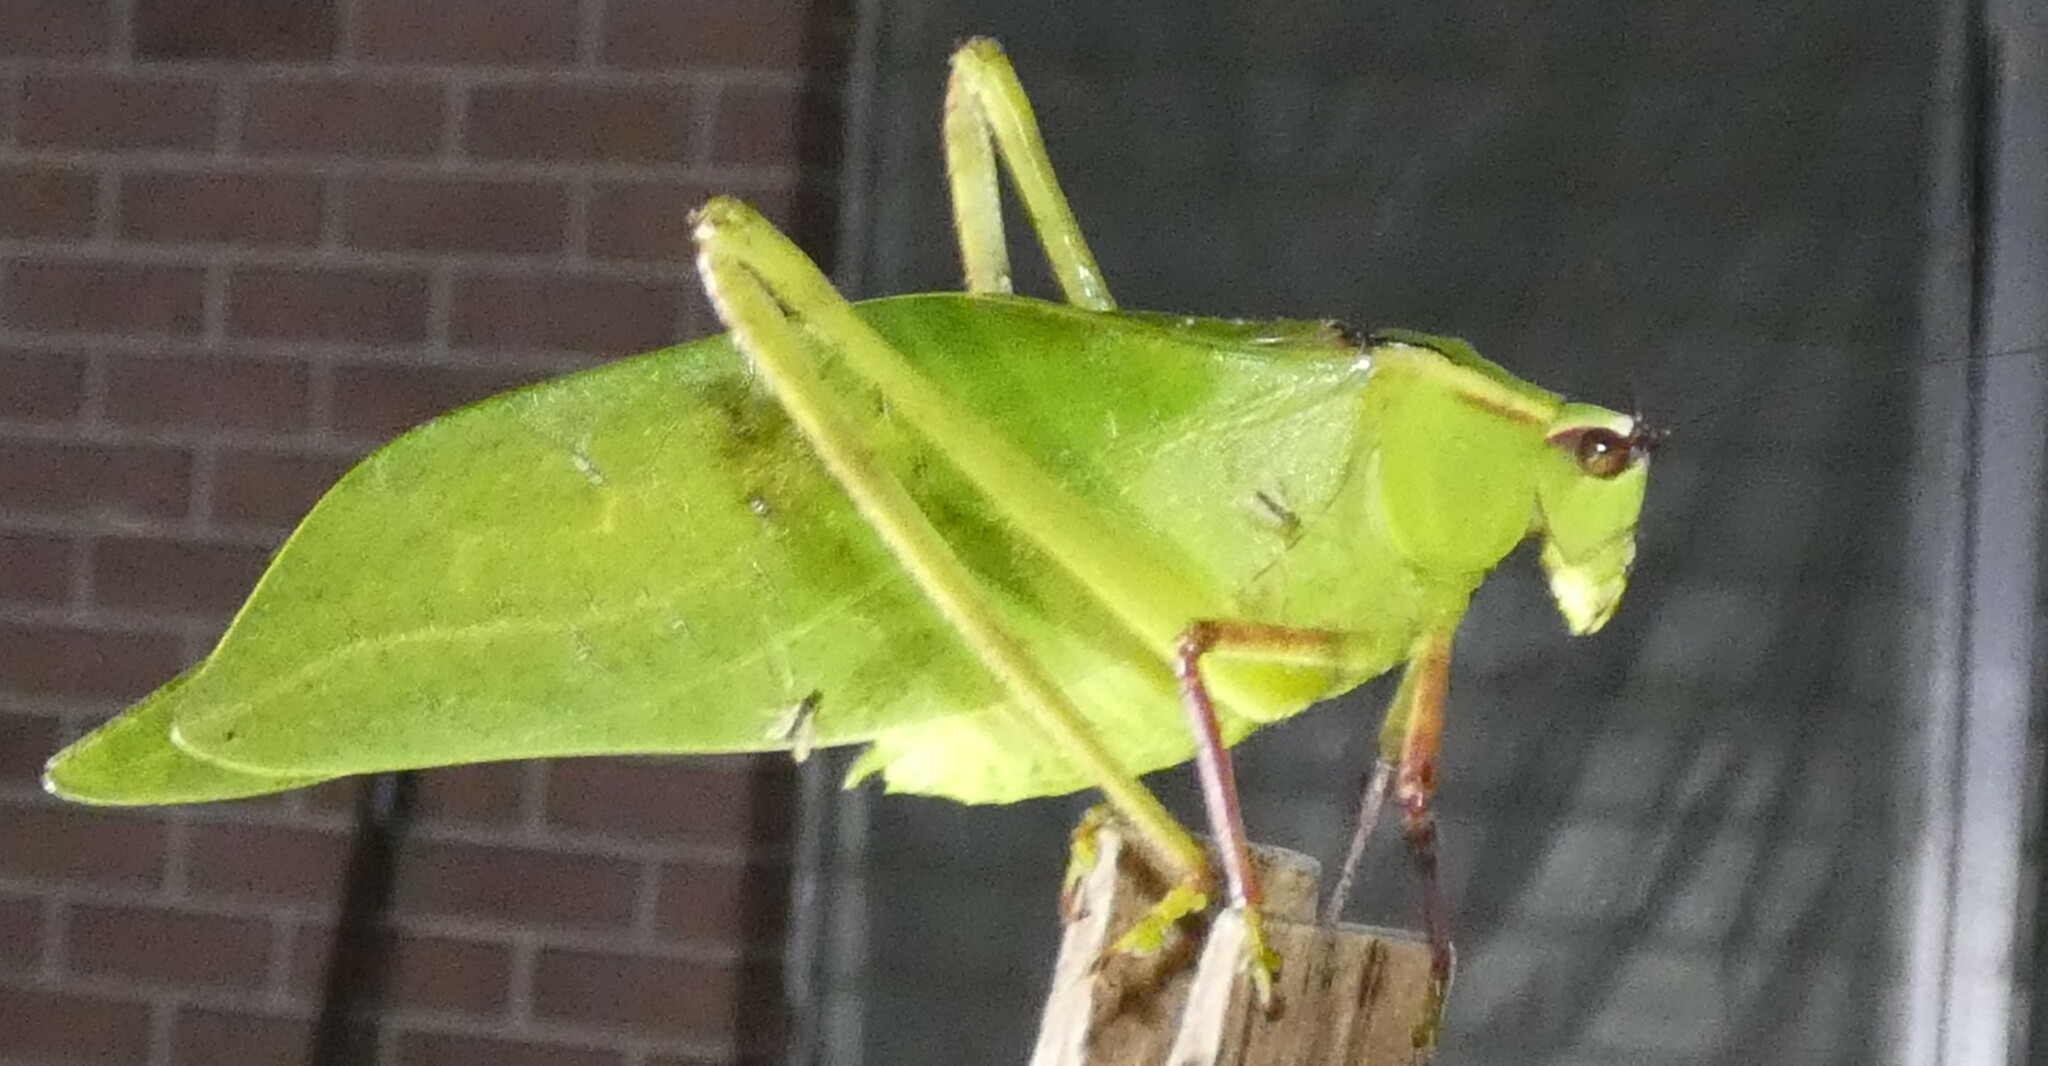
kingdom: Animalia
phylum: Arthropoda
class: Insecta
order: Orthoptera
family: Tettigoniidae
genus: Stilpnochlora
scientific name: Stilpnochlora couloniana
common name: Giant katydid
